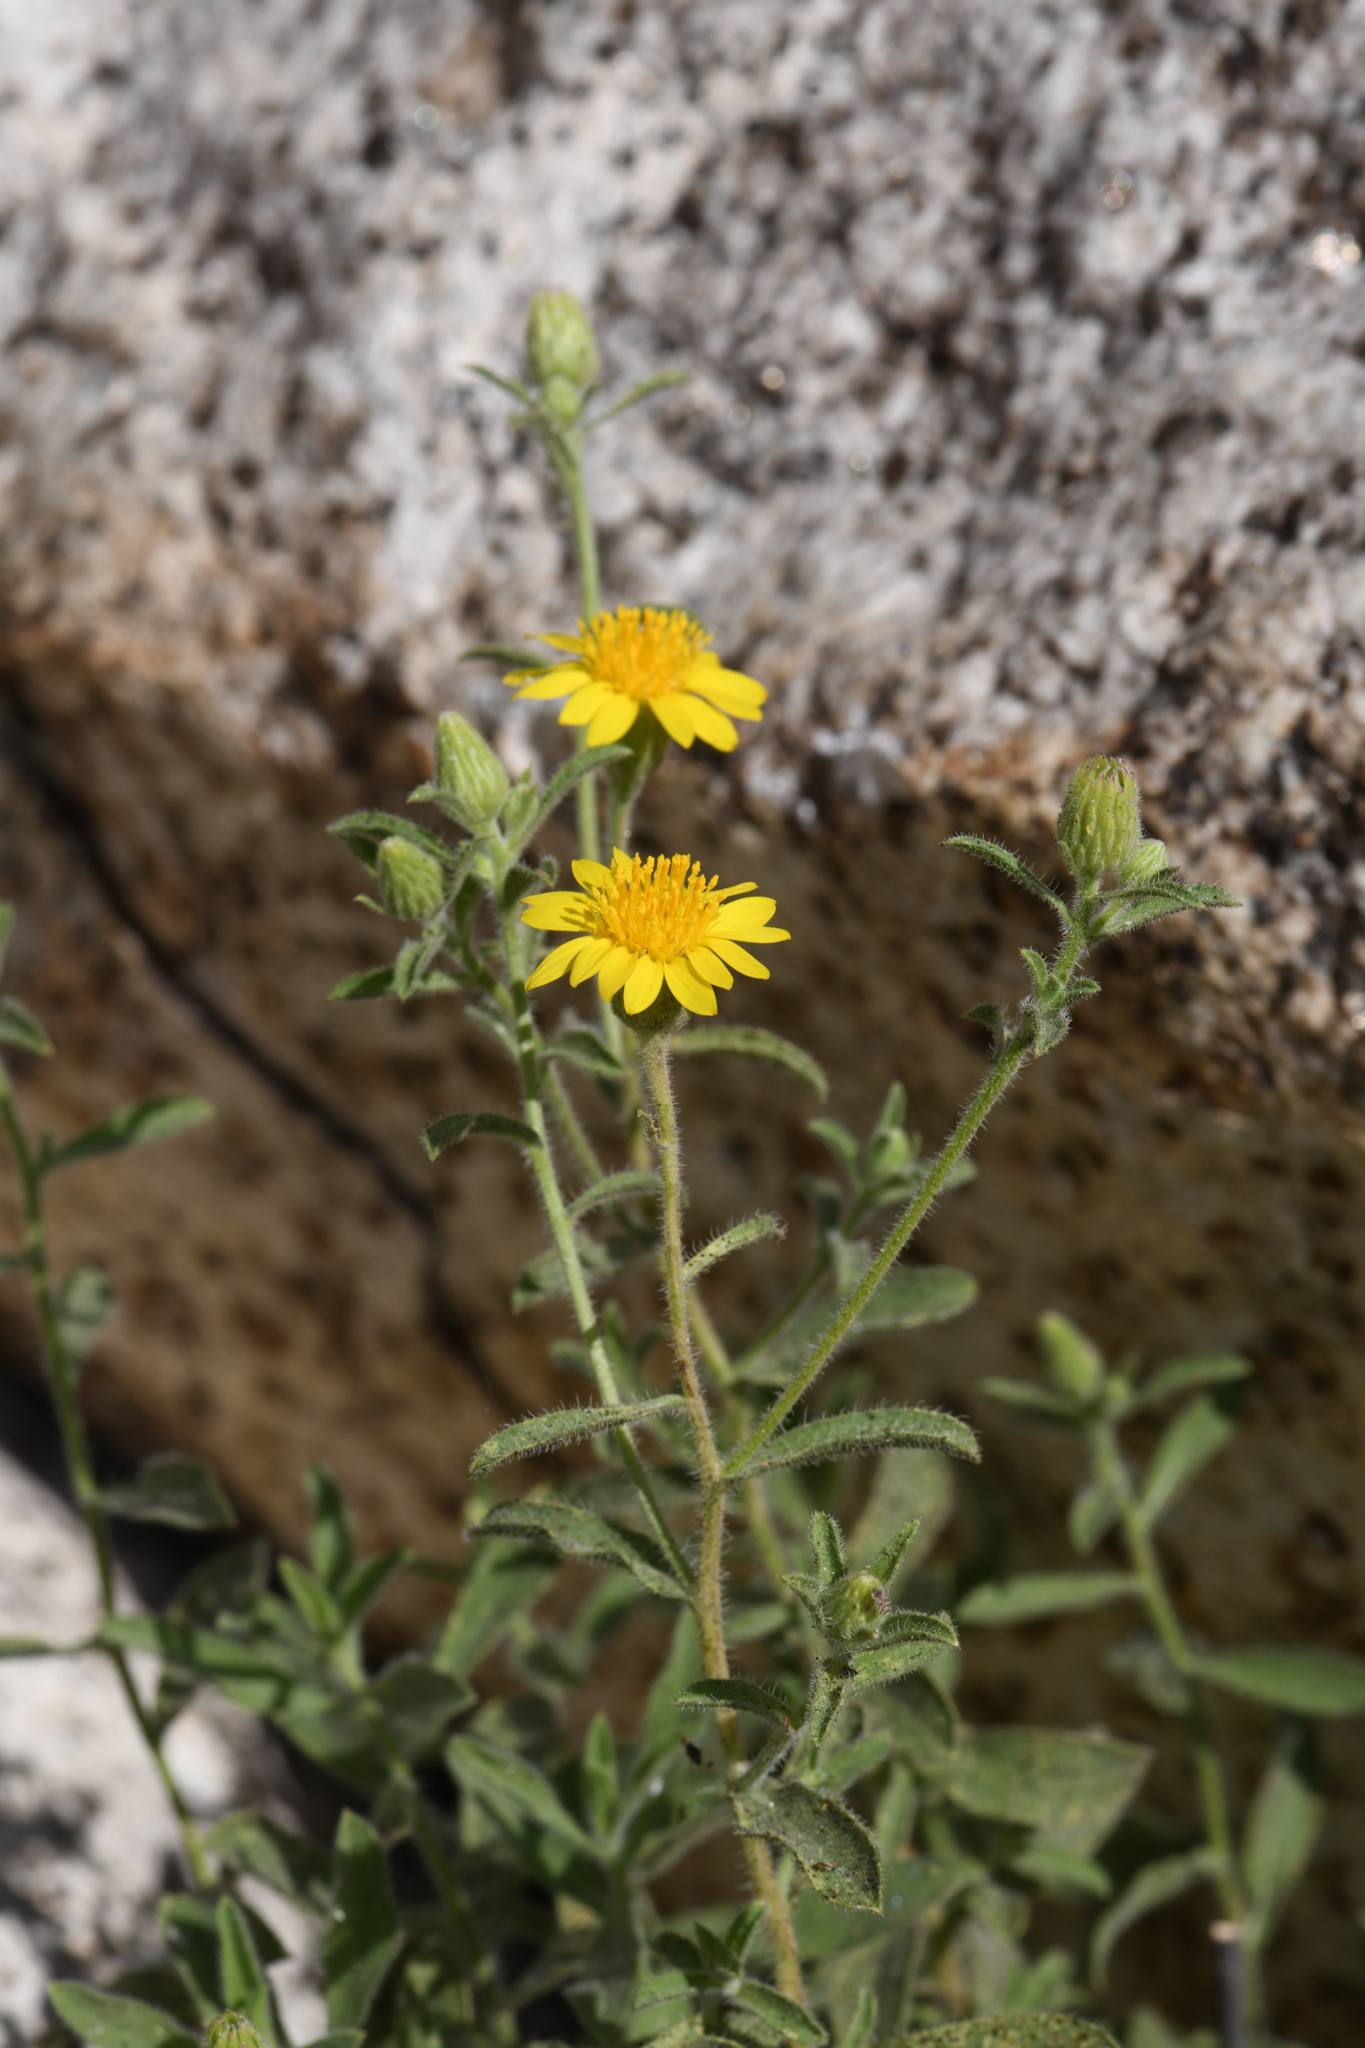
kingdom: Plantae
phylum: Tracheophyta
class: Magnoliopsida
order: Asterales
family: Asteraceae
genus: Heterotheca
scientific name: Heterotheca shevockii
